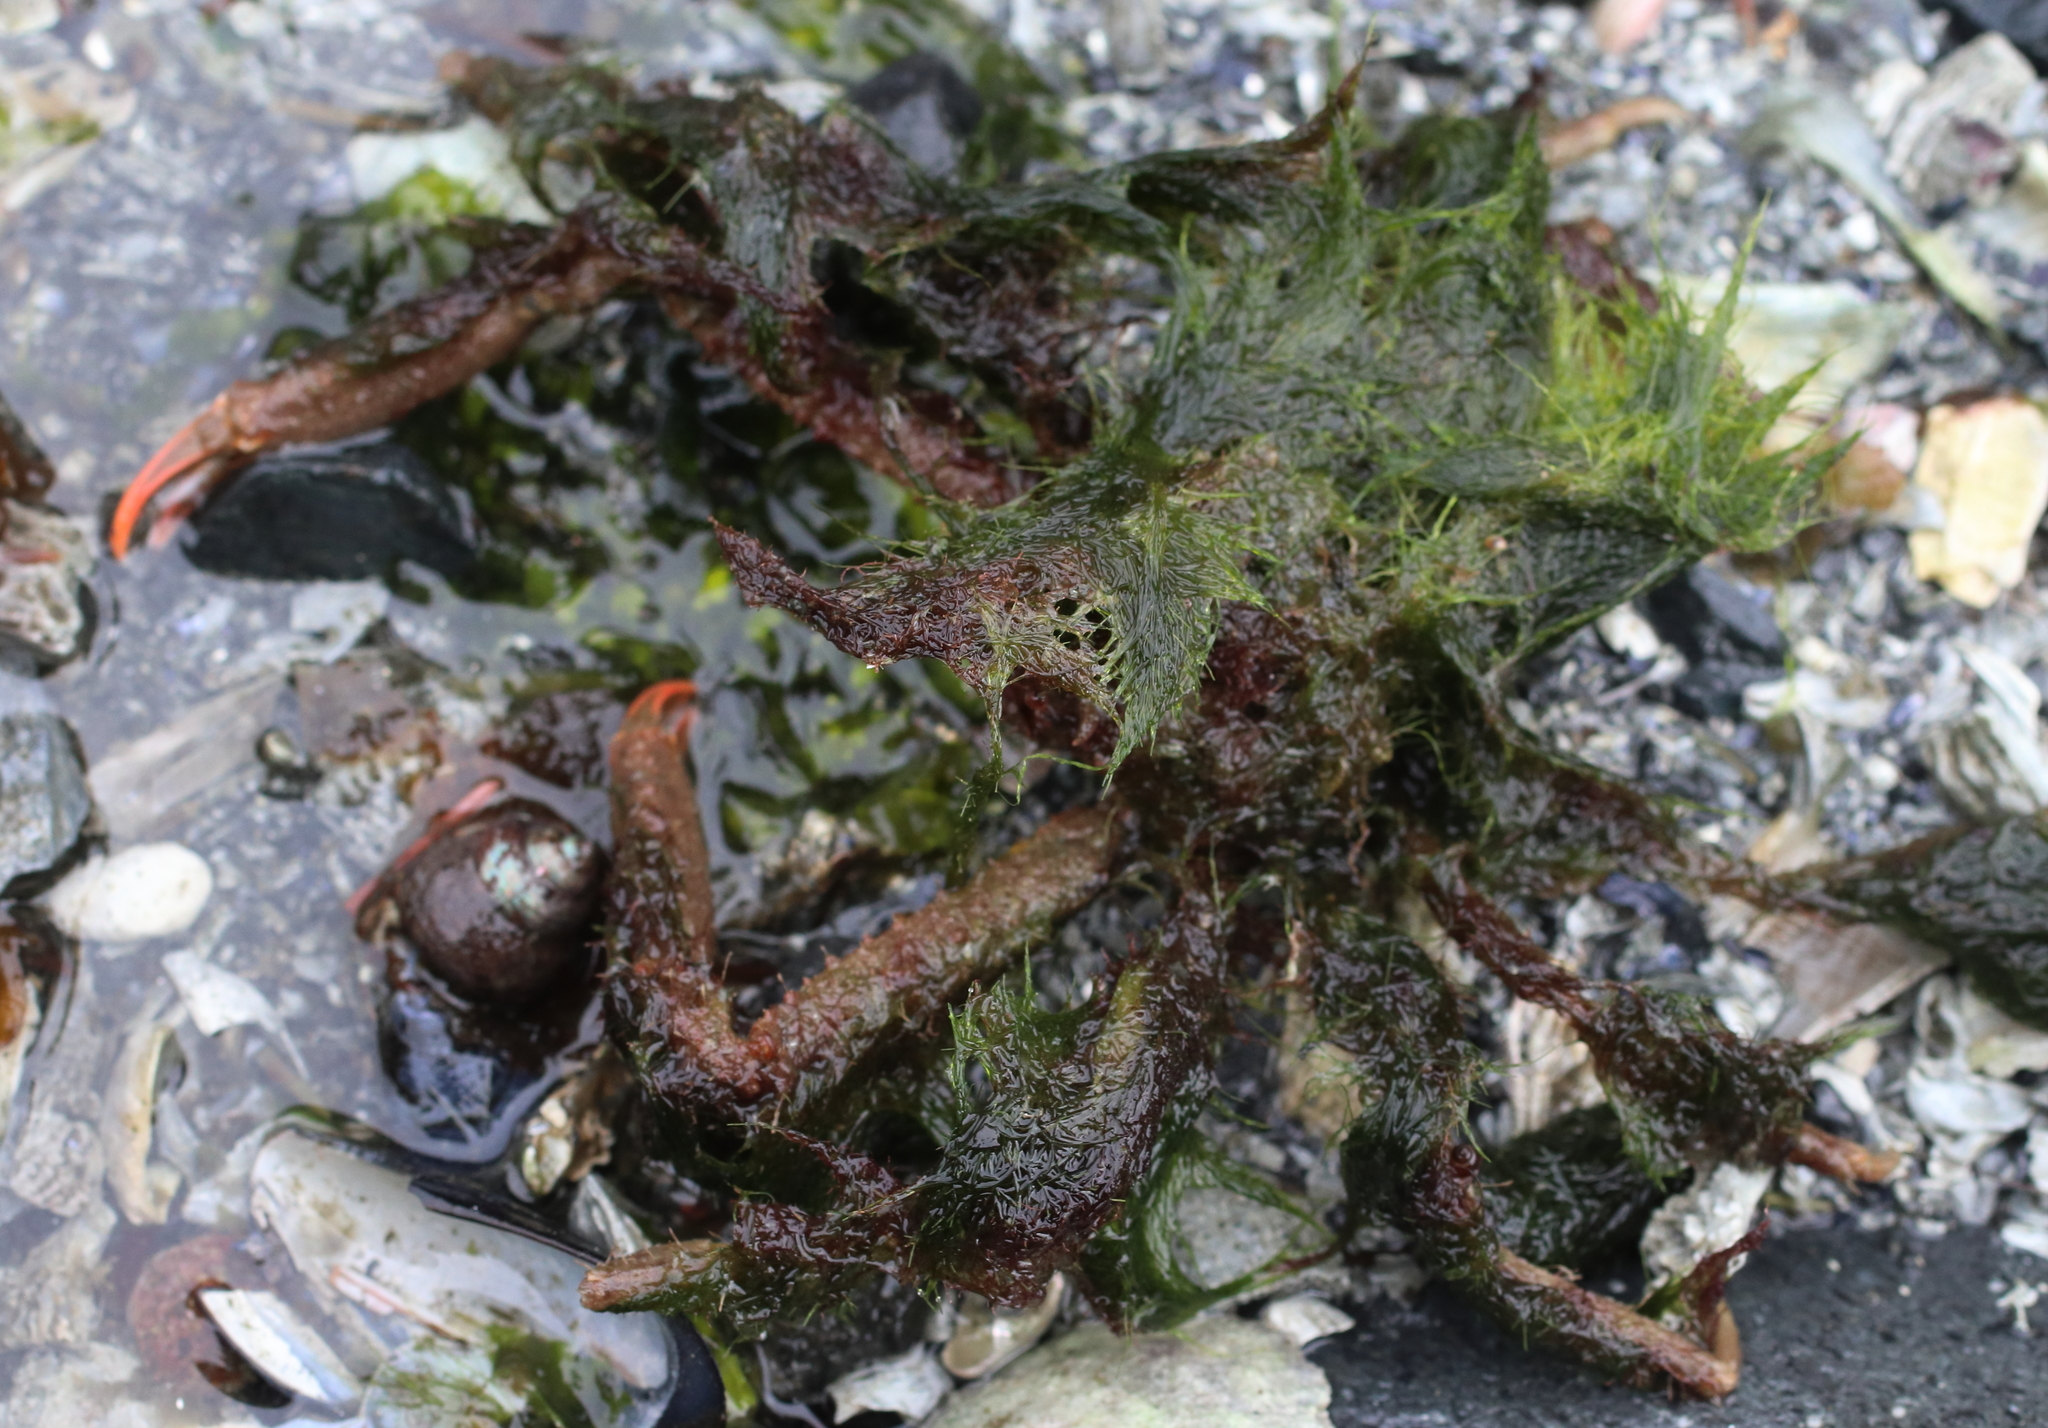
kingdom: Animalia
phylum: Arthropoda
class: Malacostraca
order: Decapoda
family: Oregoniidae
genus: Oregonia
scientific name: Oregonia gracilis
